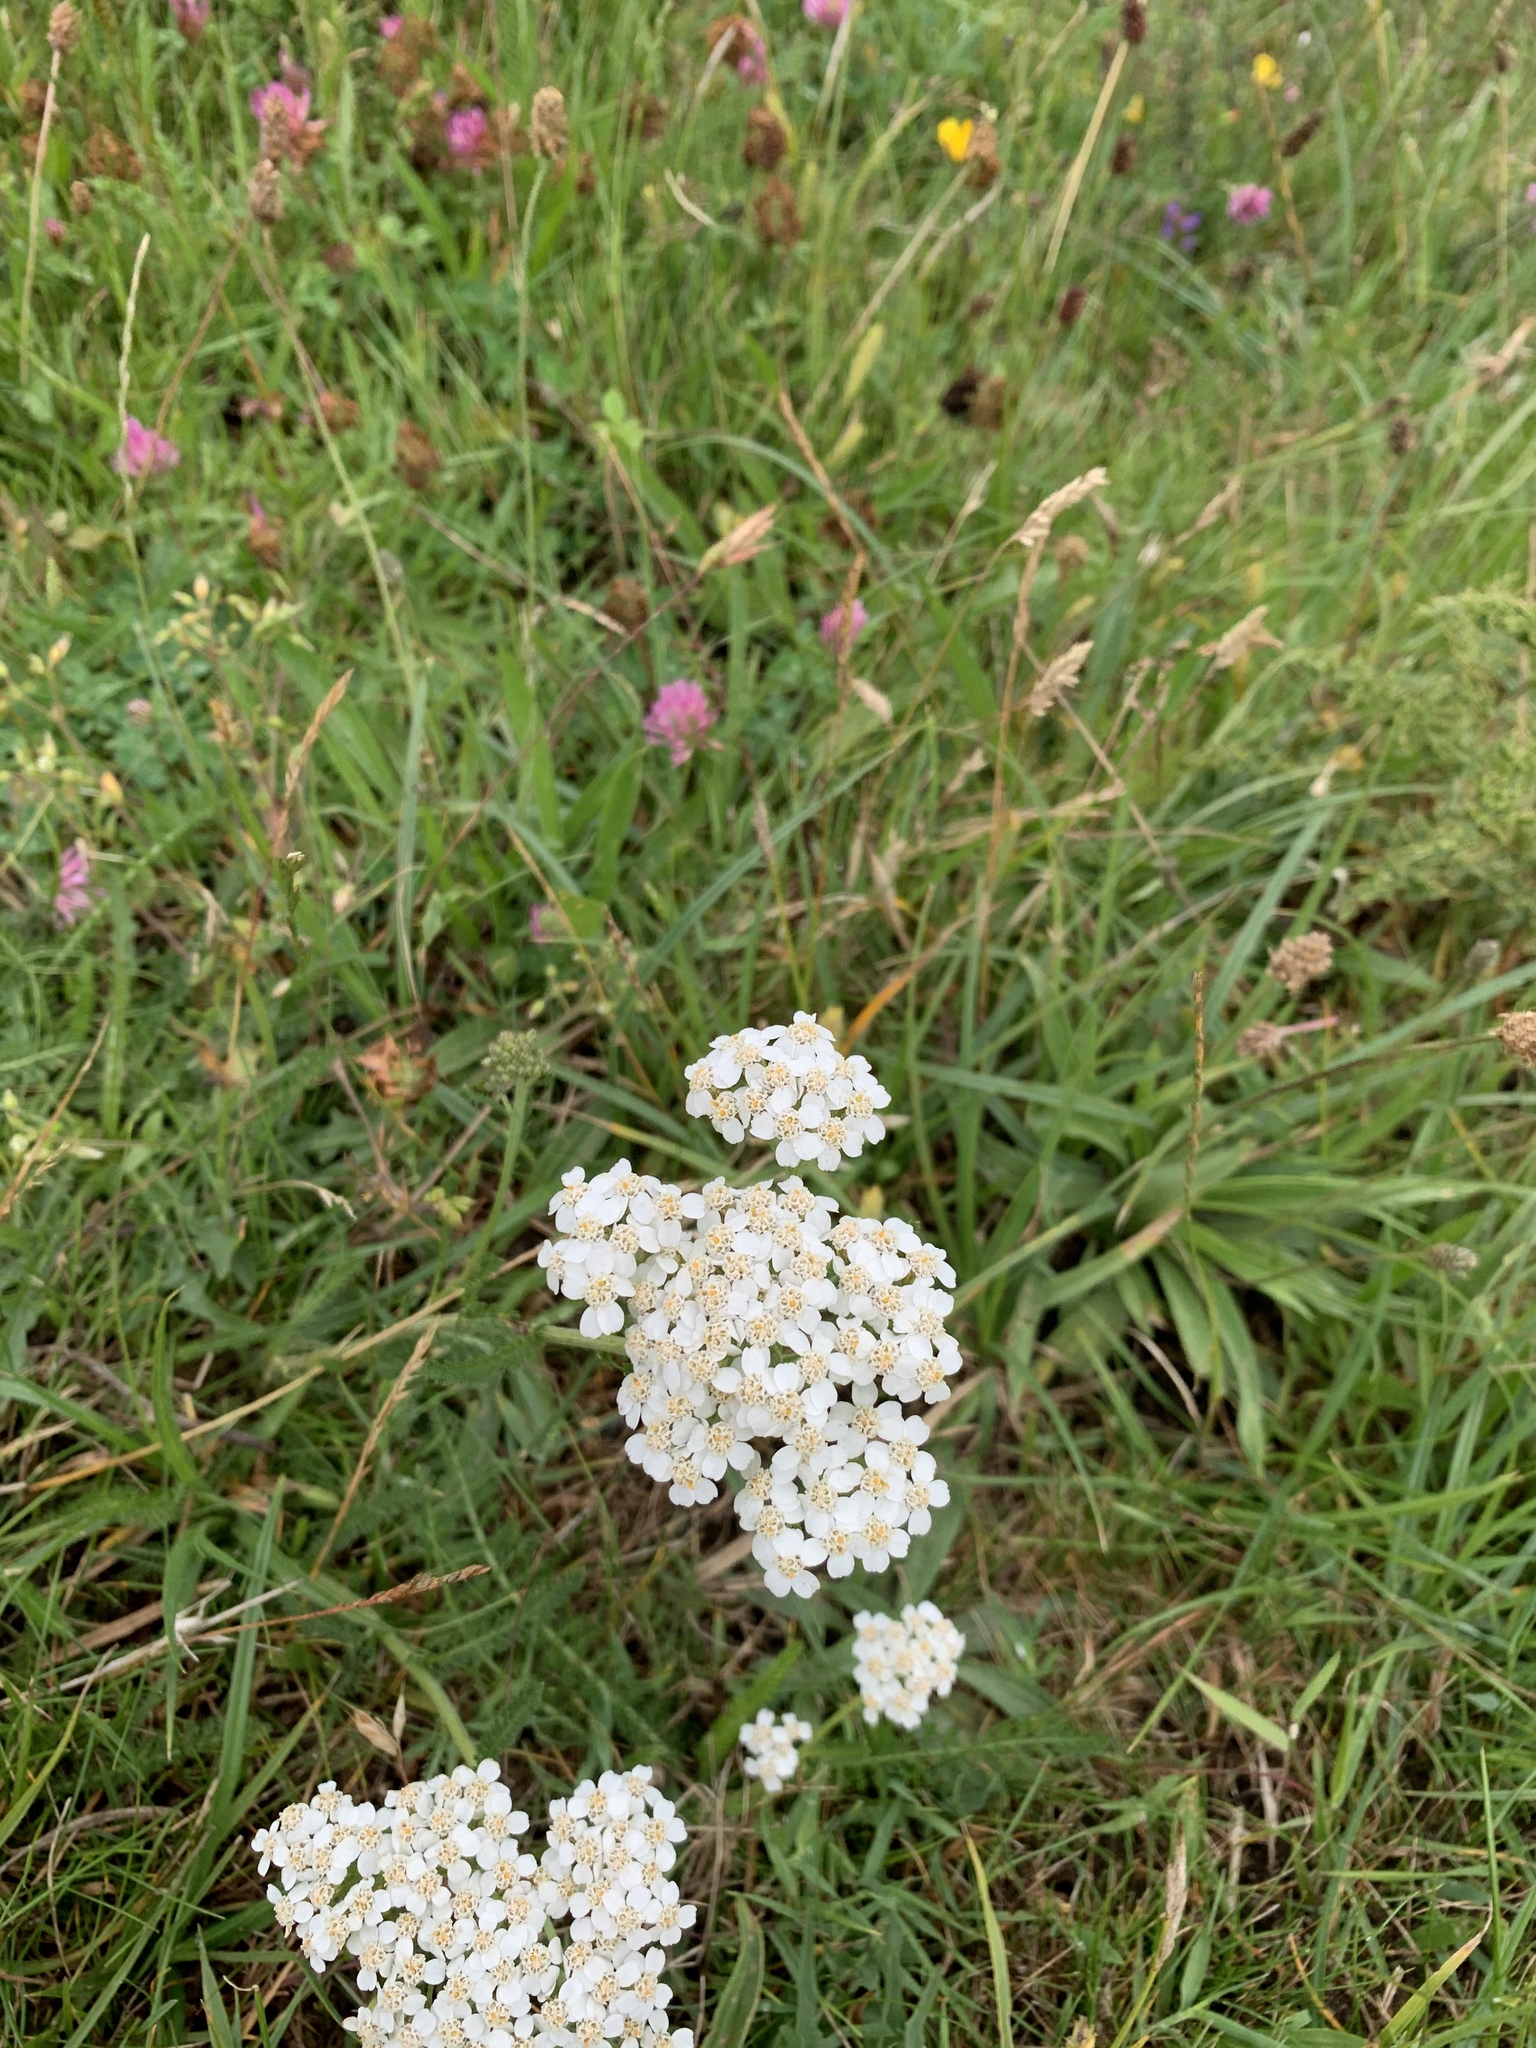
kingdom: Plantae
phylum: Tracheophyta
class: Magnoliopsida
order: Asterales
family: Asteraceae
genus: Achillea
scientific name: Achillea millefolium
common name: Yarrow
